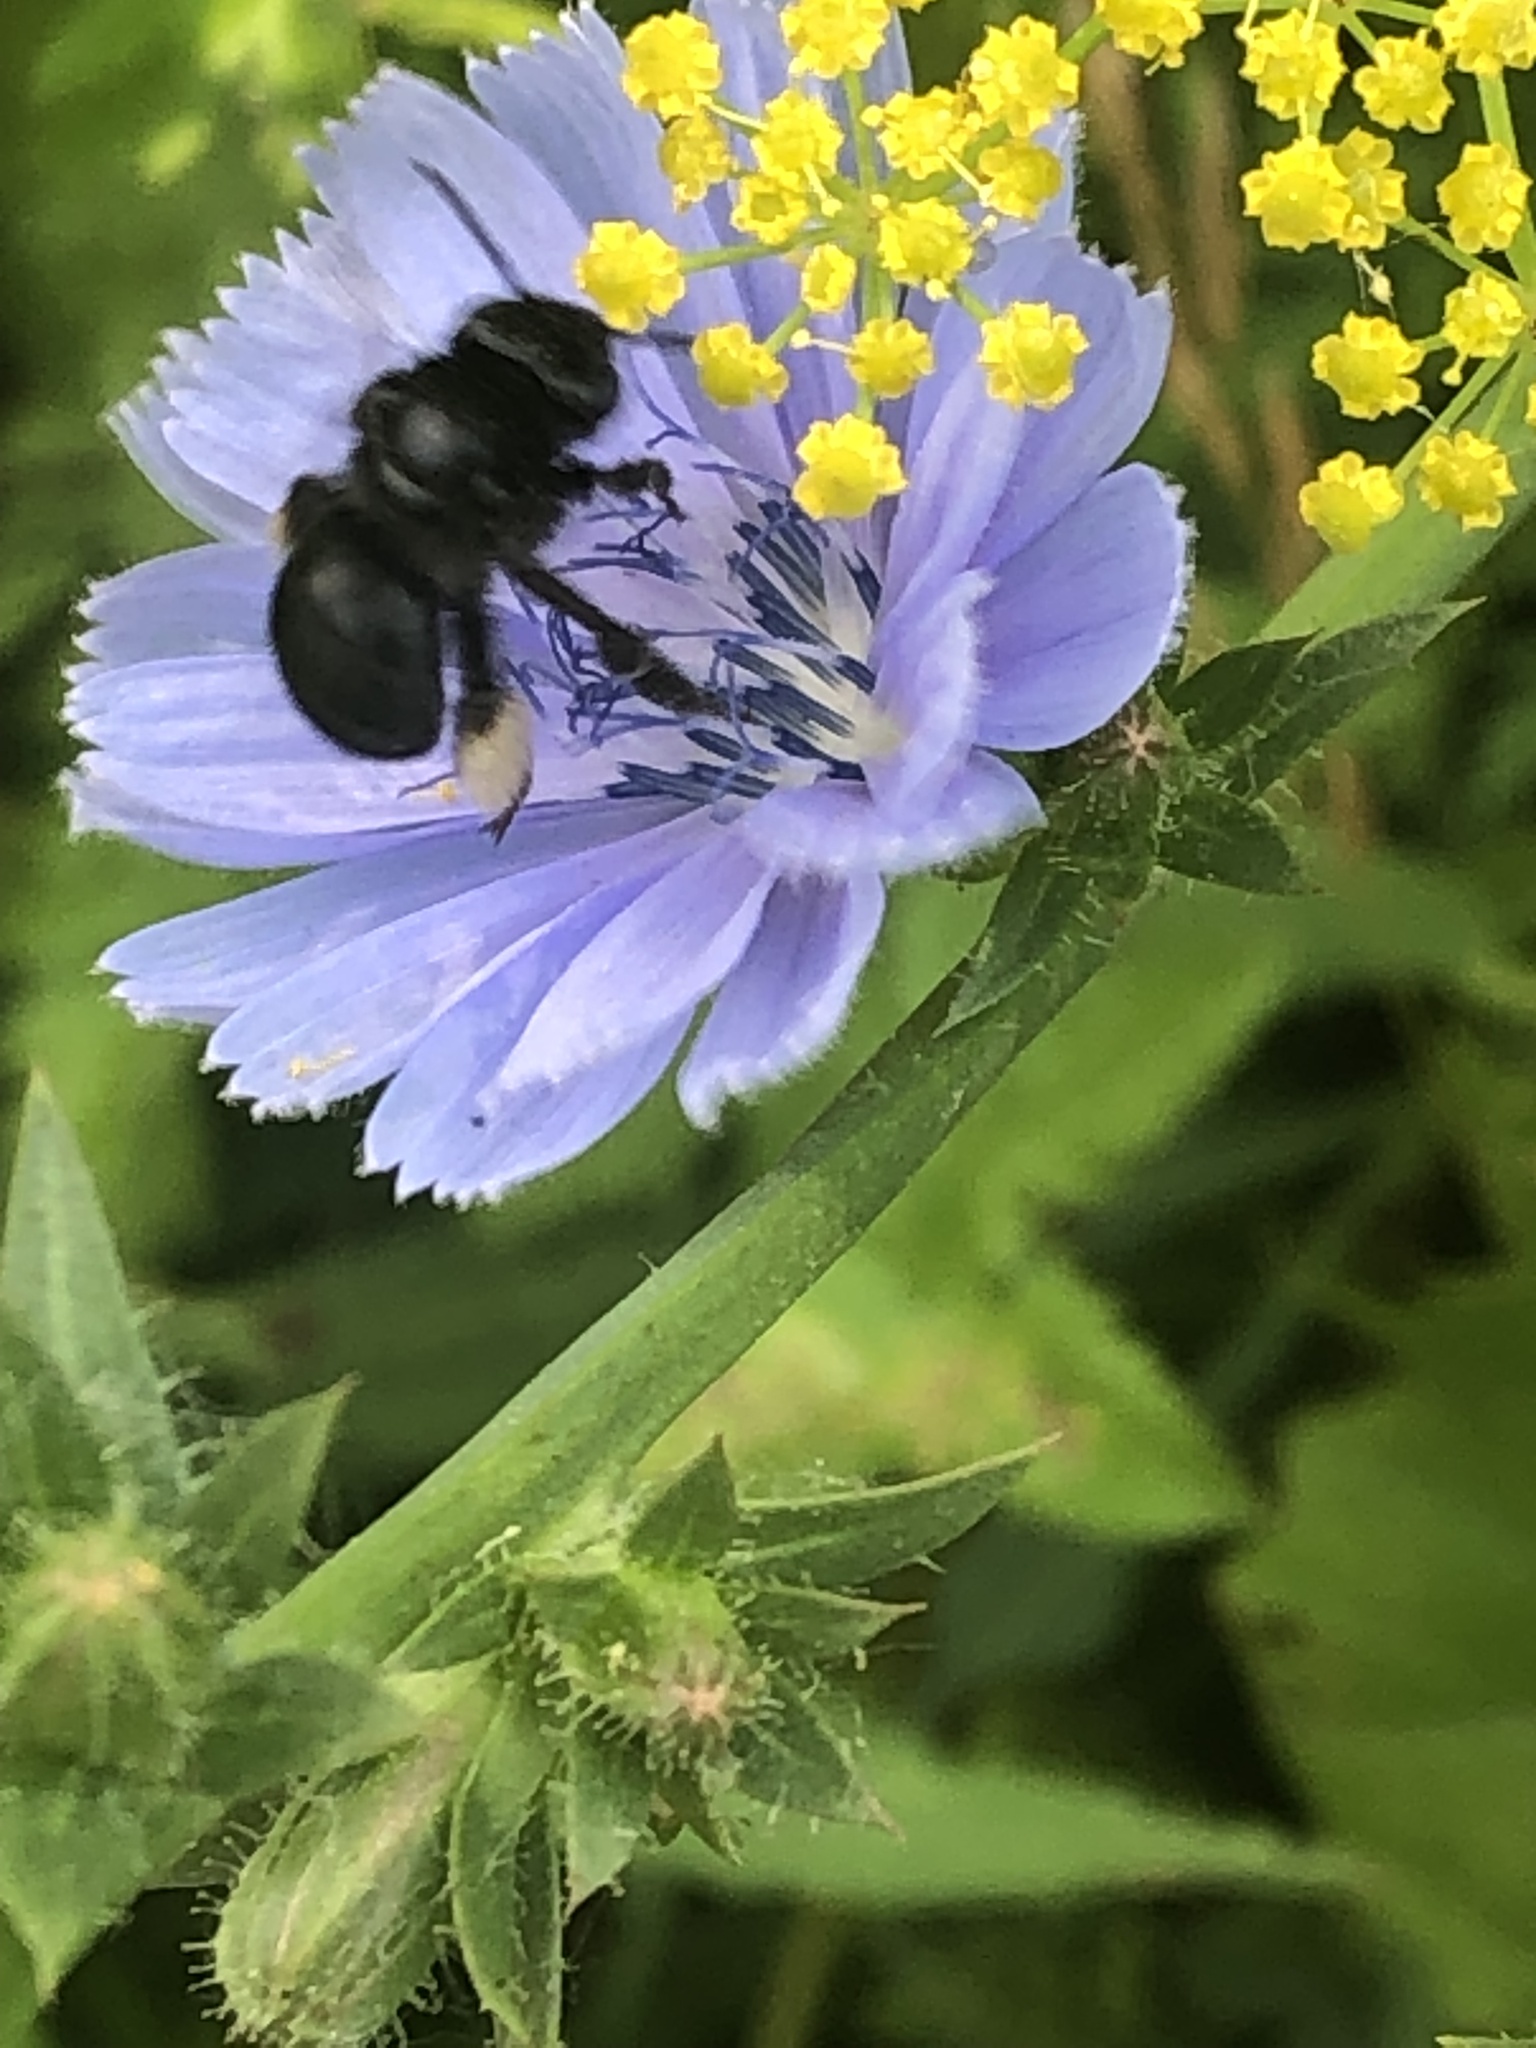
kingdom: Animalia
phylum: Arthropoda
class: Insecta
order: Hymenoptera
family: Apidae
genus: Melissodes
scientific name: Melissodes bimaculatus
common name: Two-spotted long-horned bee
